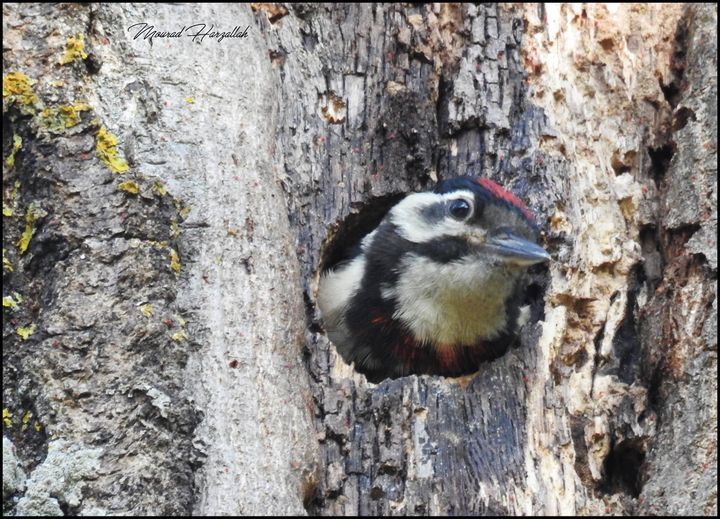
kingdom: Animalia
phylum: Chordata
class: Aves
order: Piciformes
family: Picidae
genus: Dendrocopos
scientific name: Dendrocopos major
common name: Great spotted woodpecker
